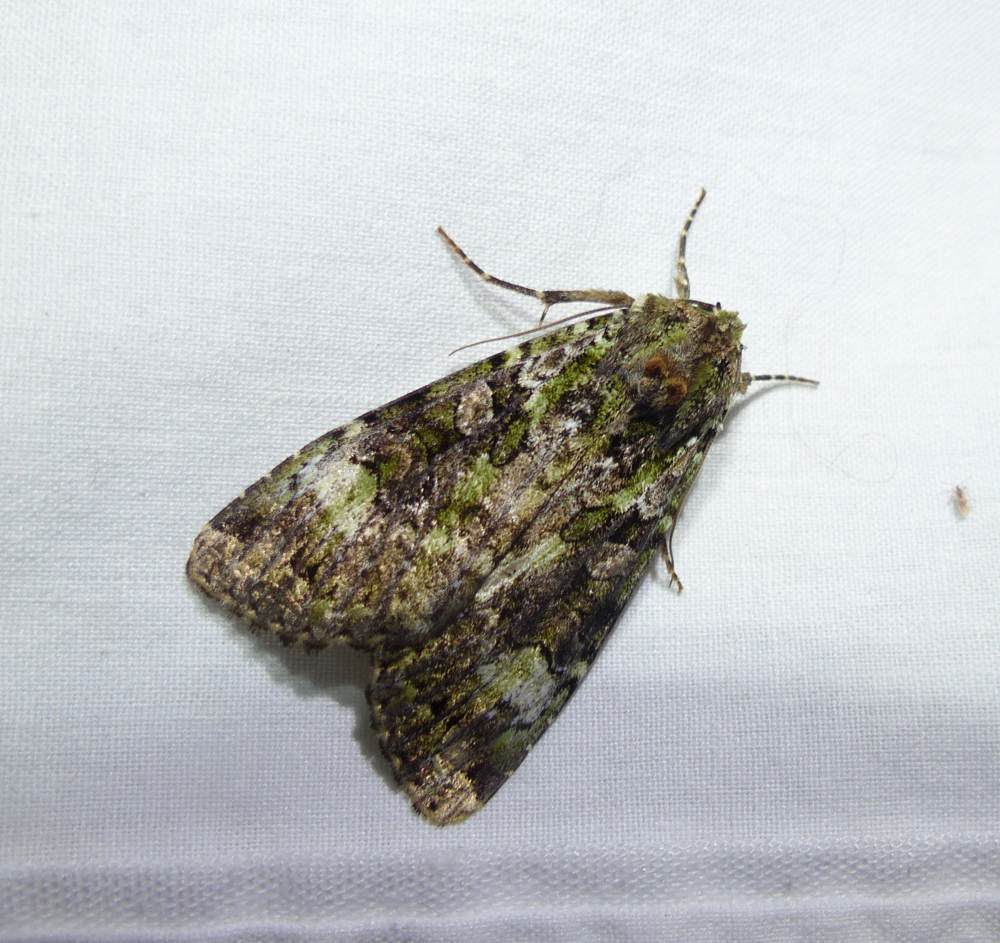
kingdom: Animalia
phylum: Arthropoda
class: Insecta
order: Lepidoptera
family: Noctuidae
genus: Anaplectoides
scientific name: Anaplectoides prasina
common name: Green arches
